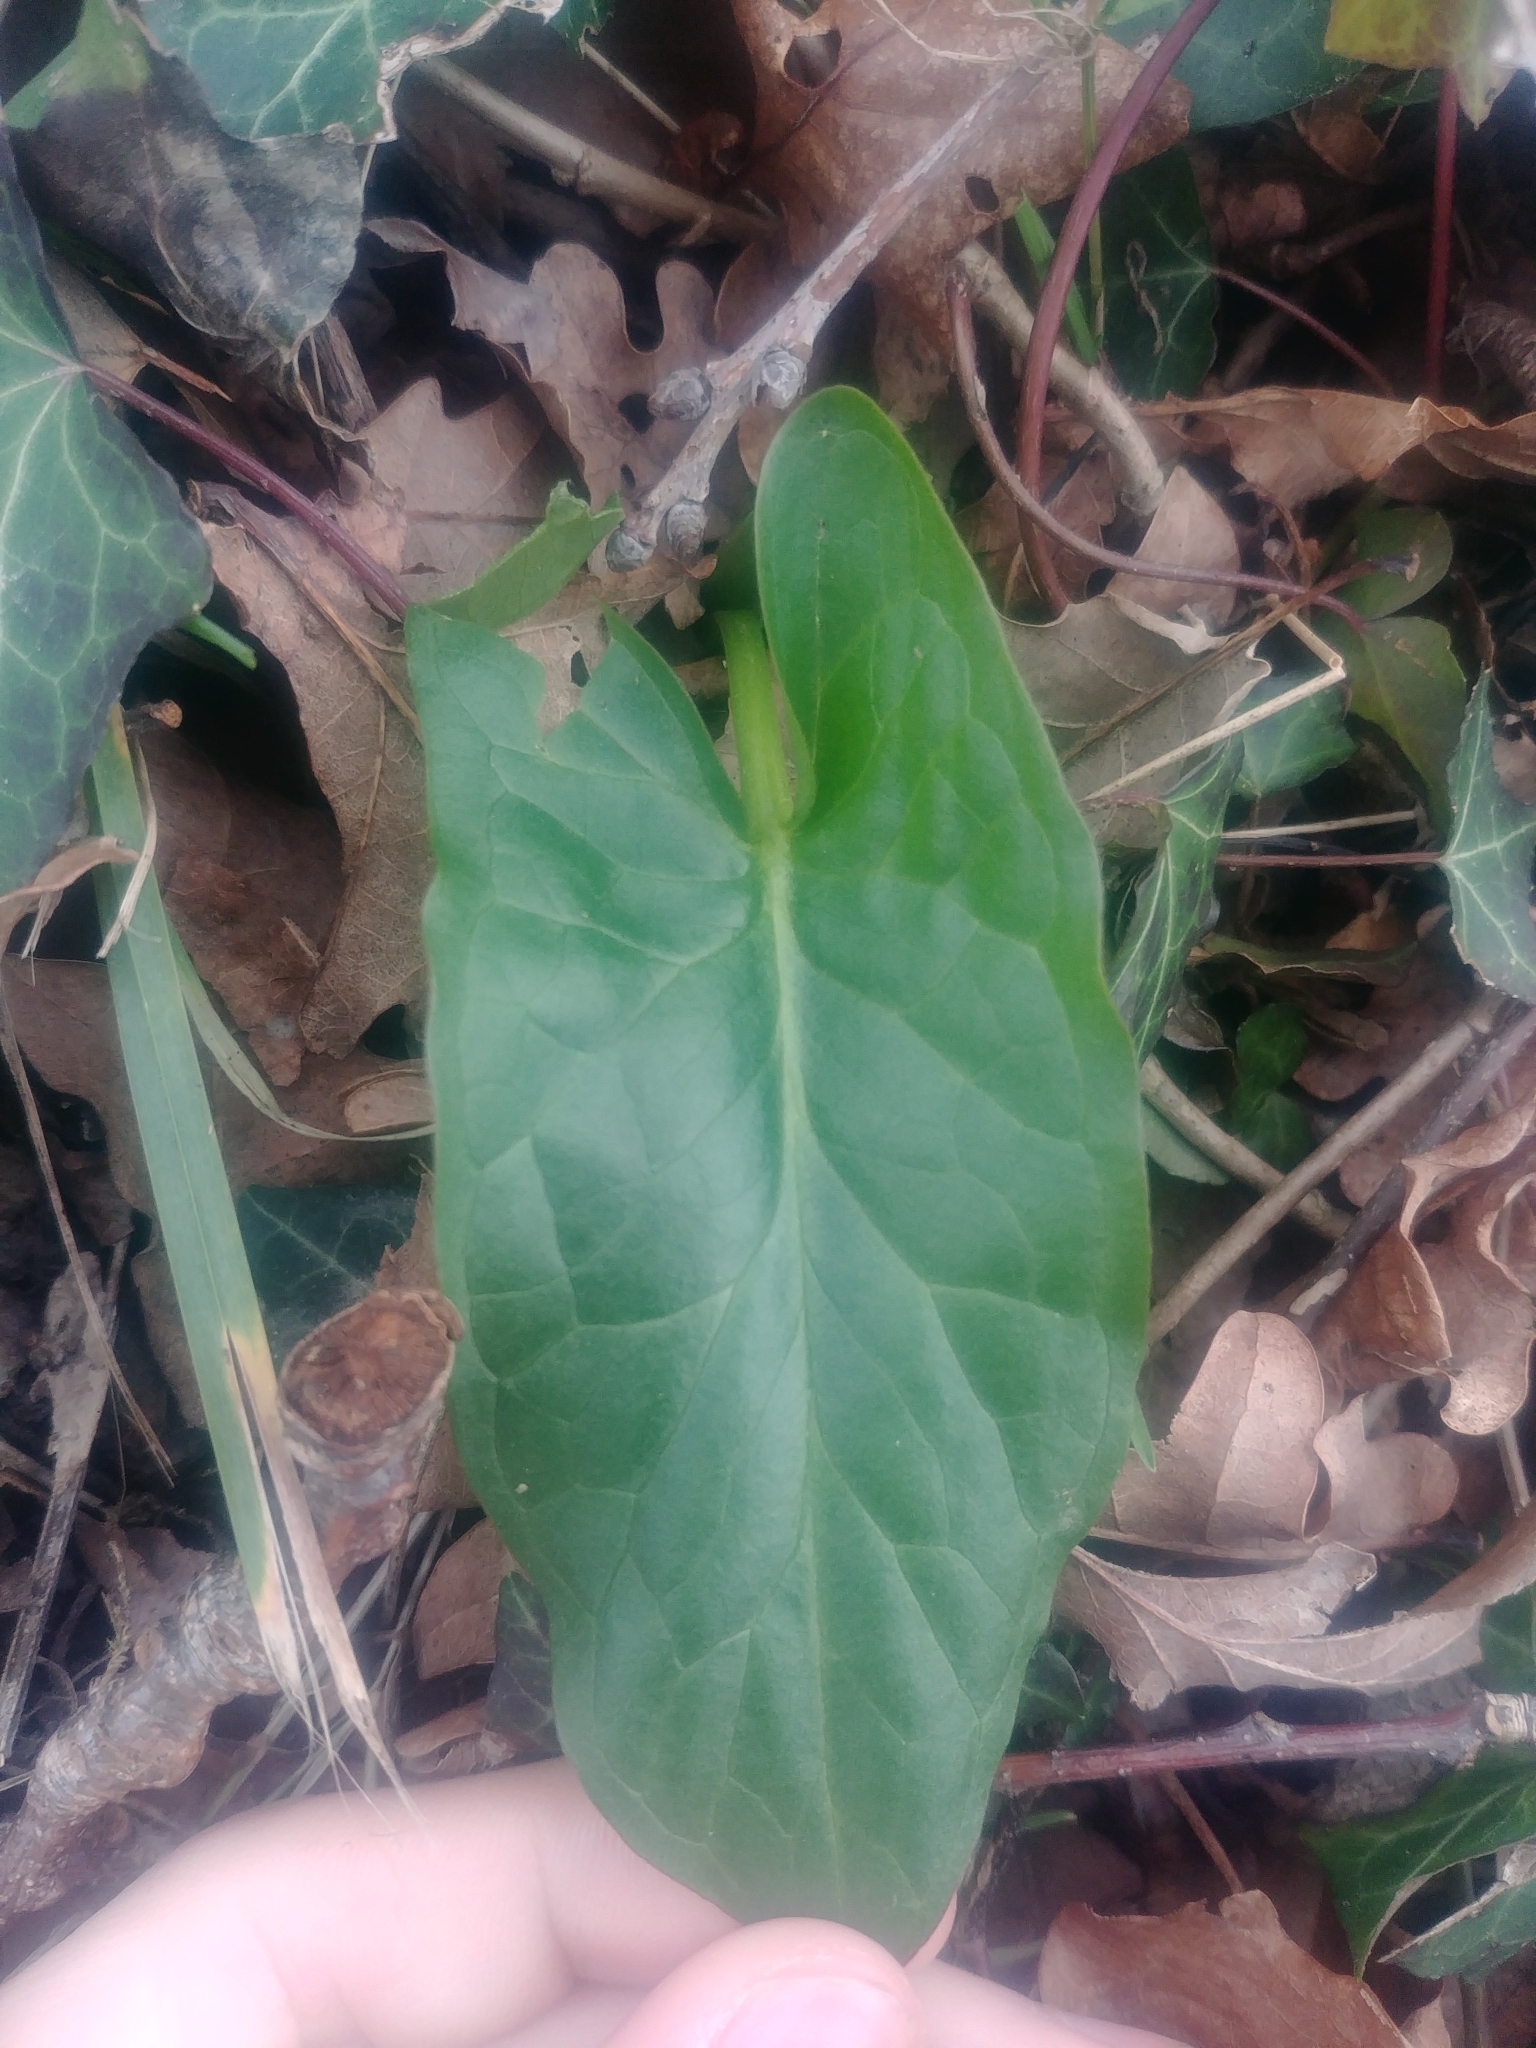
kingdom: Plantae
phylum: Tracheophyta
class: Liliopsida
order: Alismatales
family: Araceae
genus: Arum
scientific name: Arum
